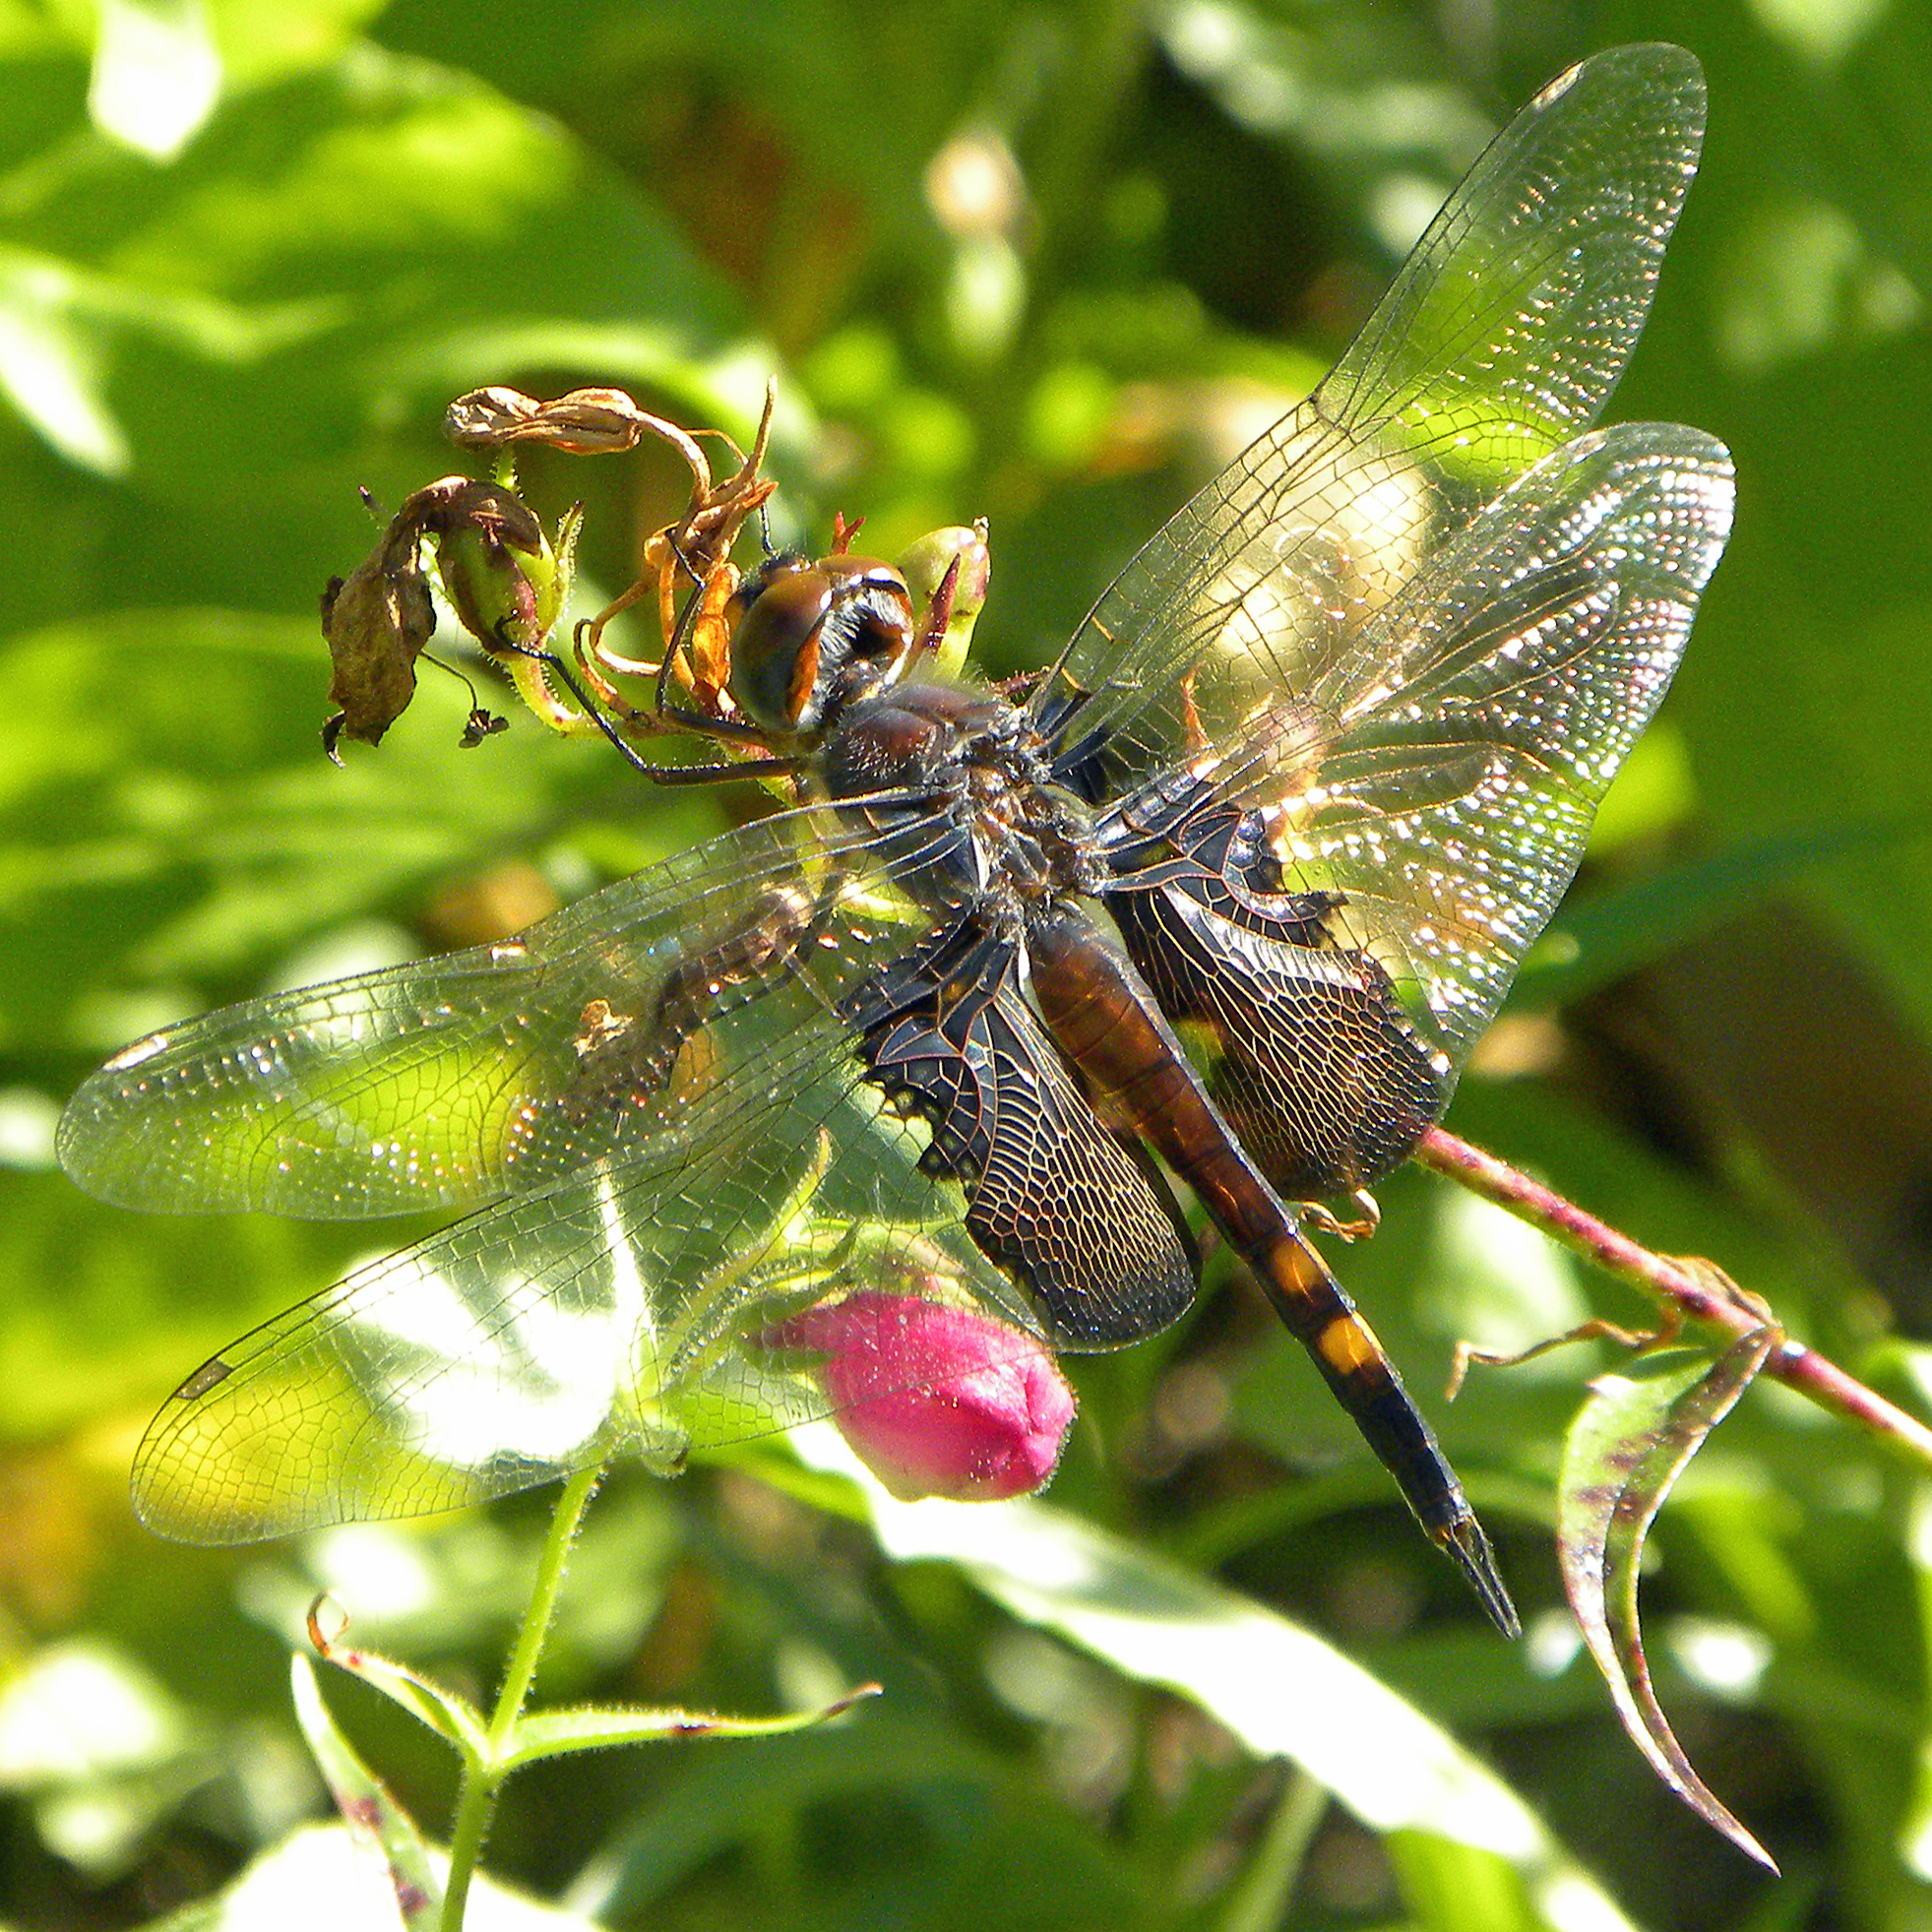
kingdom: Animalia
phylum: Arthropoda
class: Insecta
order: Odonata
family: Libellulidae
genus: Tramea
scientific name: Tramea lacerata
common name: Black saddlebags
